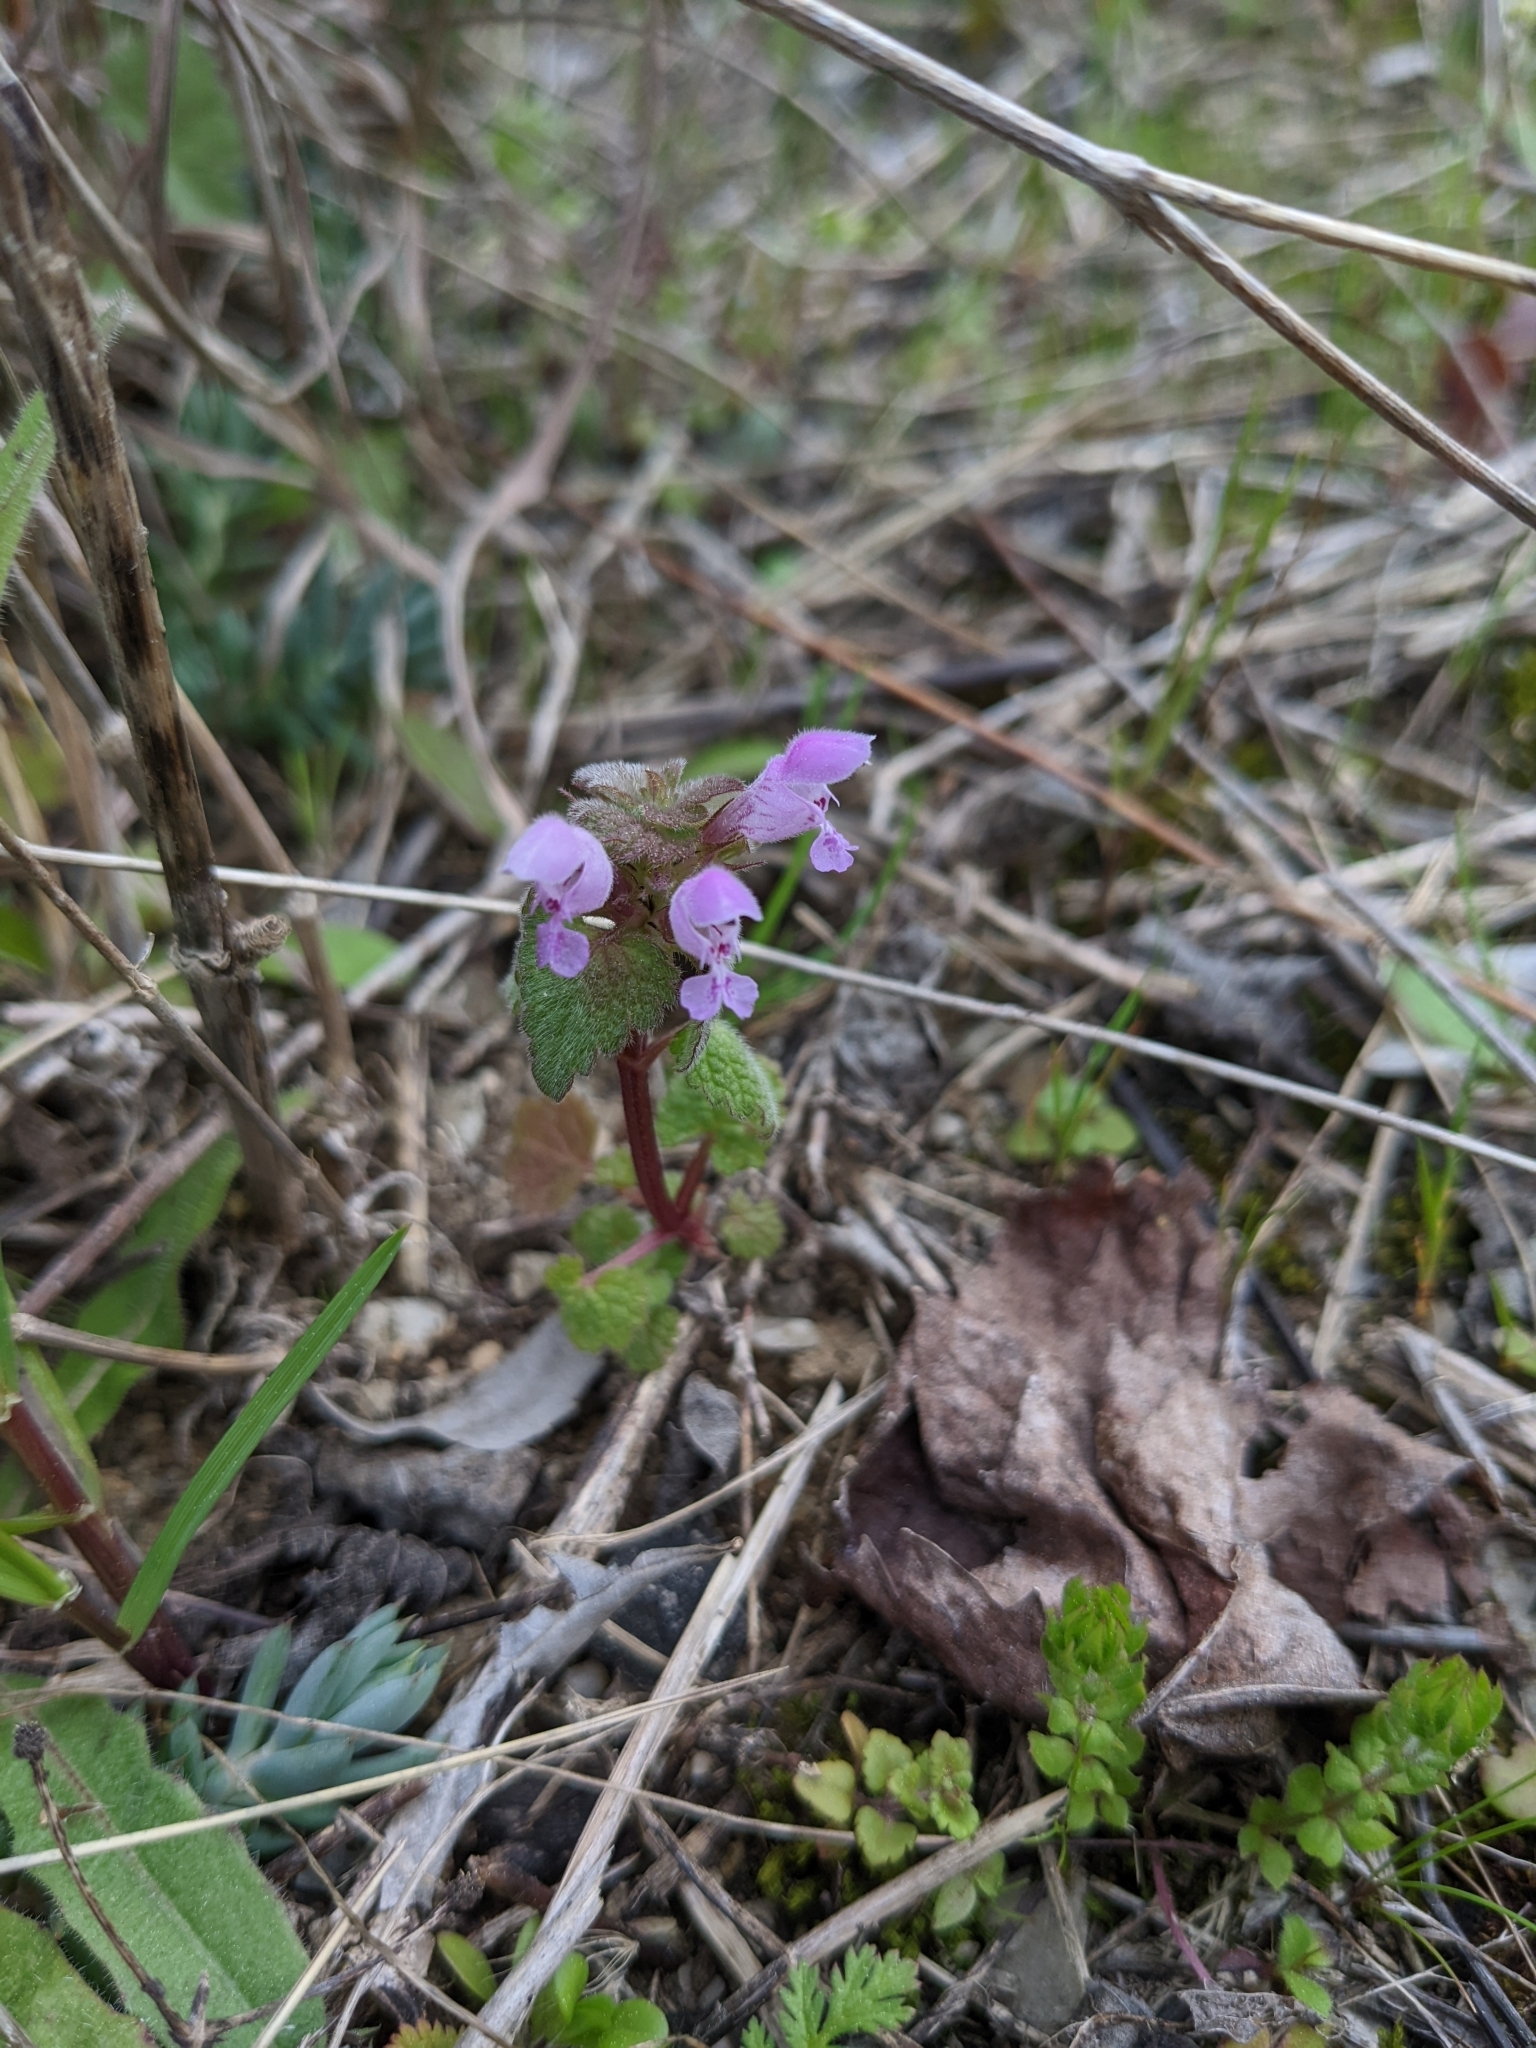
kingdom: Plantae
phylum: Tracheophyta
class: Magnoliopsida
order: Lamiales
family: Lamiaceae
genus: Lamium
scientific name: Lamium purpureum
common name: Red dead-nettle
